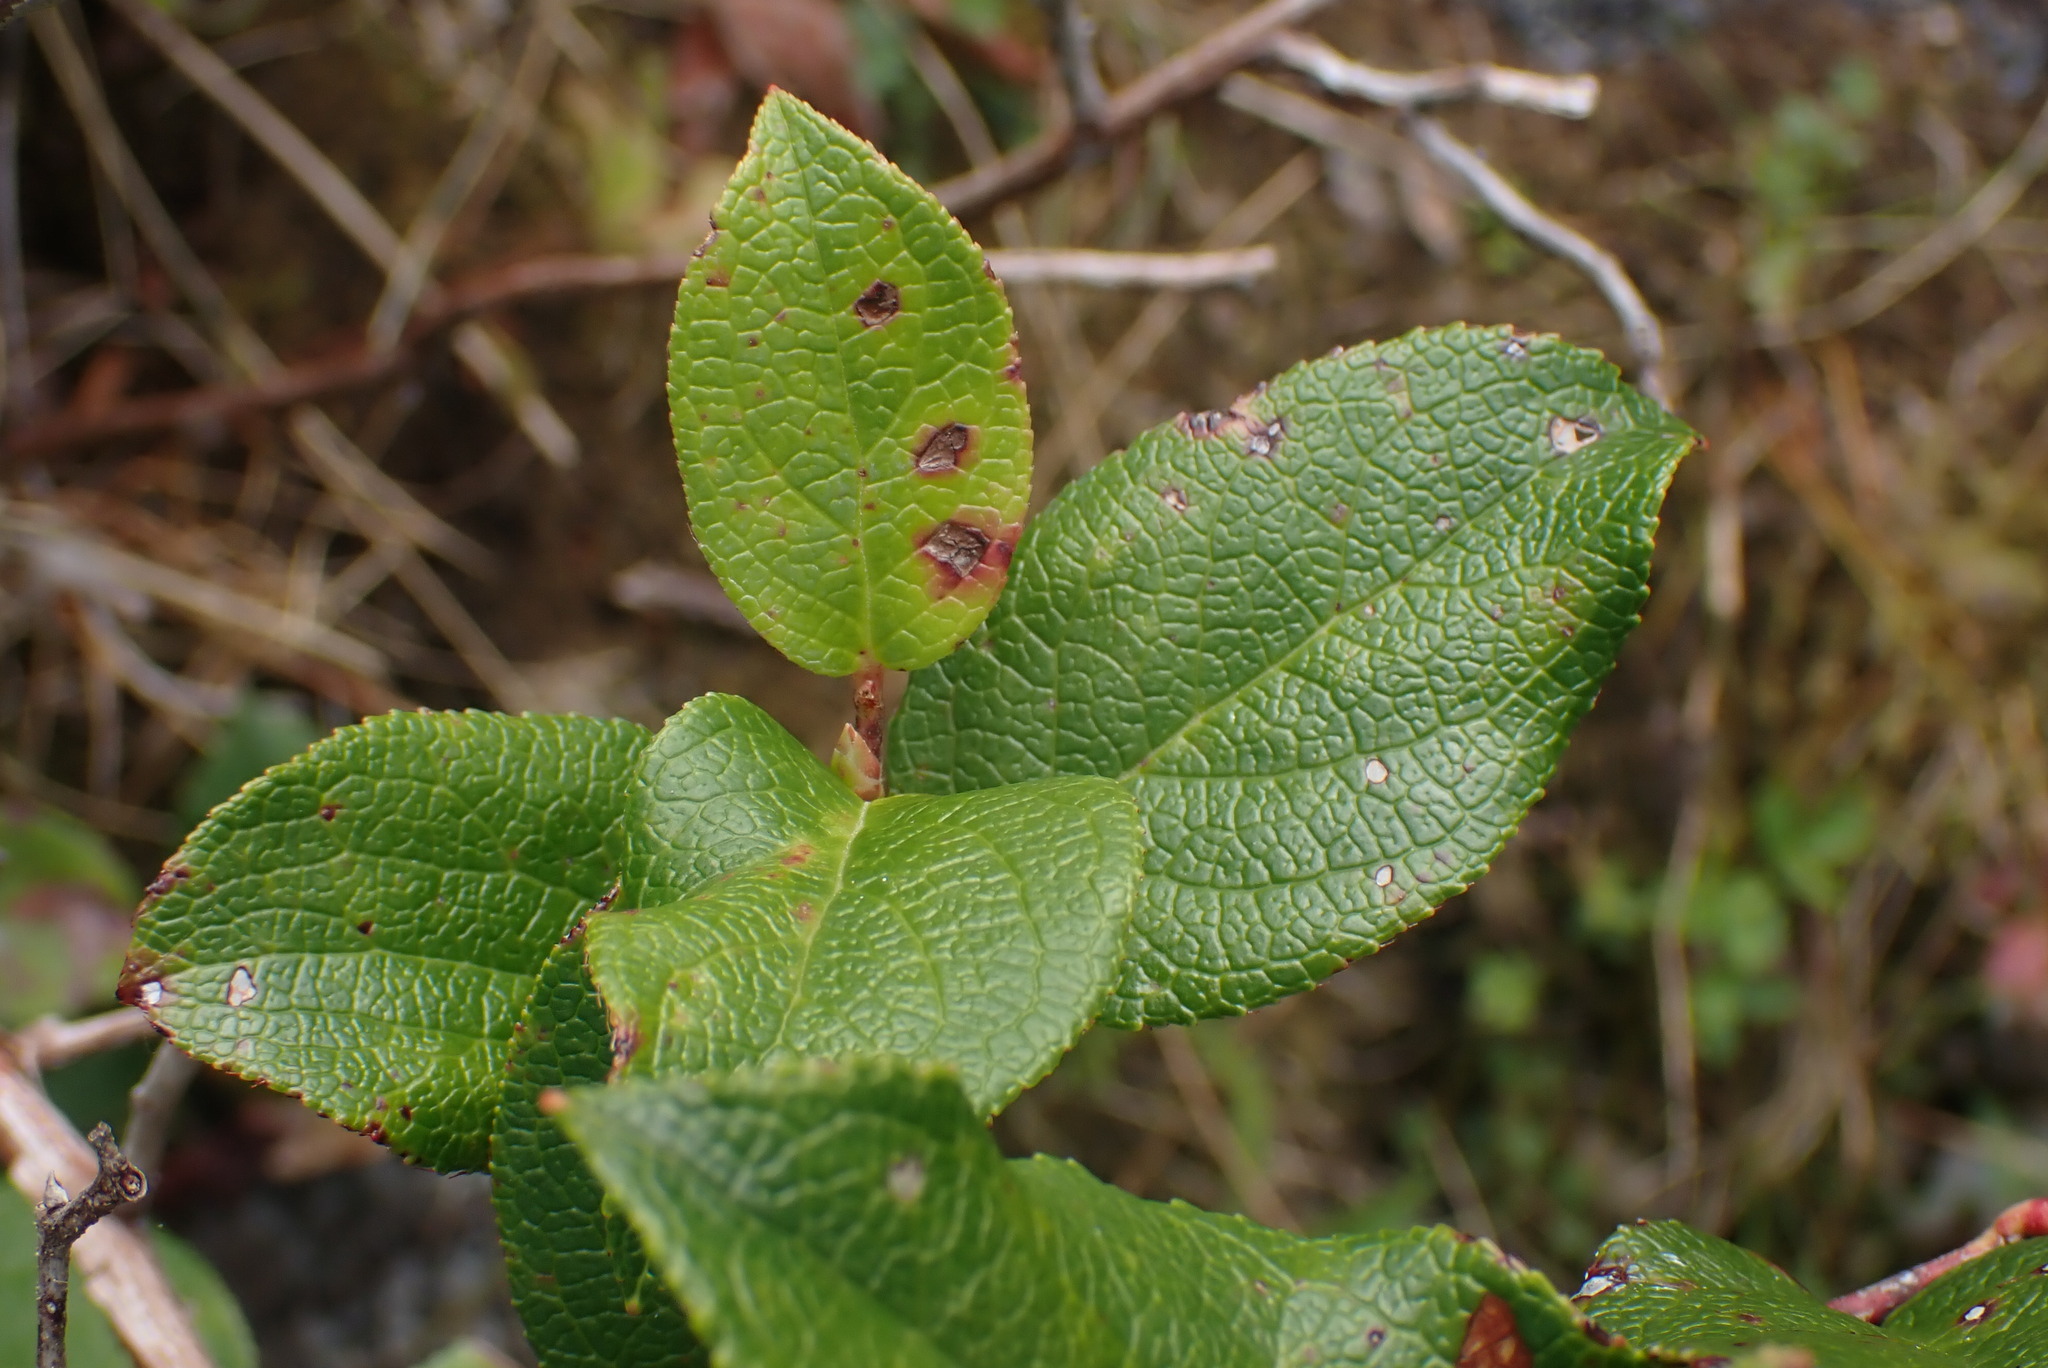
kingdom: Plantae
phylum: Tracheophyta
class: Magnoliopsida
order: Ericales
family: Ericaceae
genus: Gaultheria
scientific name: Gaultheria shallon
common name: Shallon
